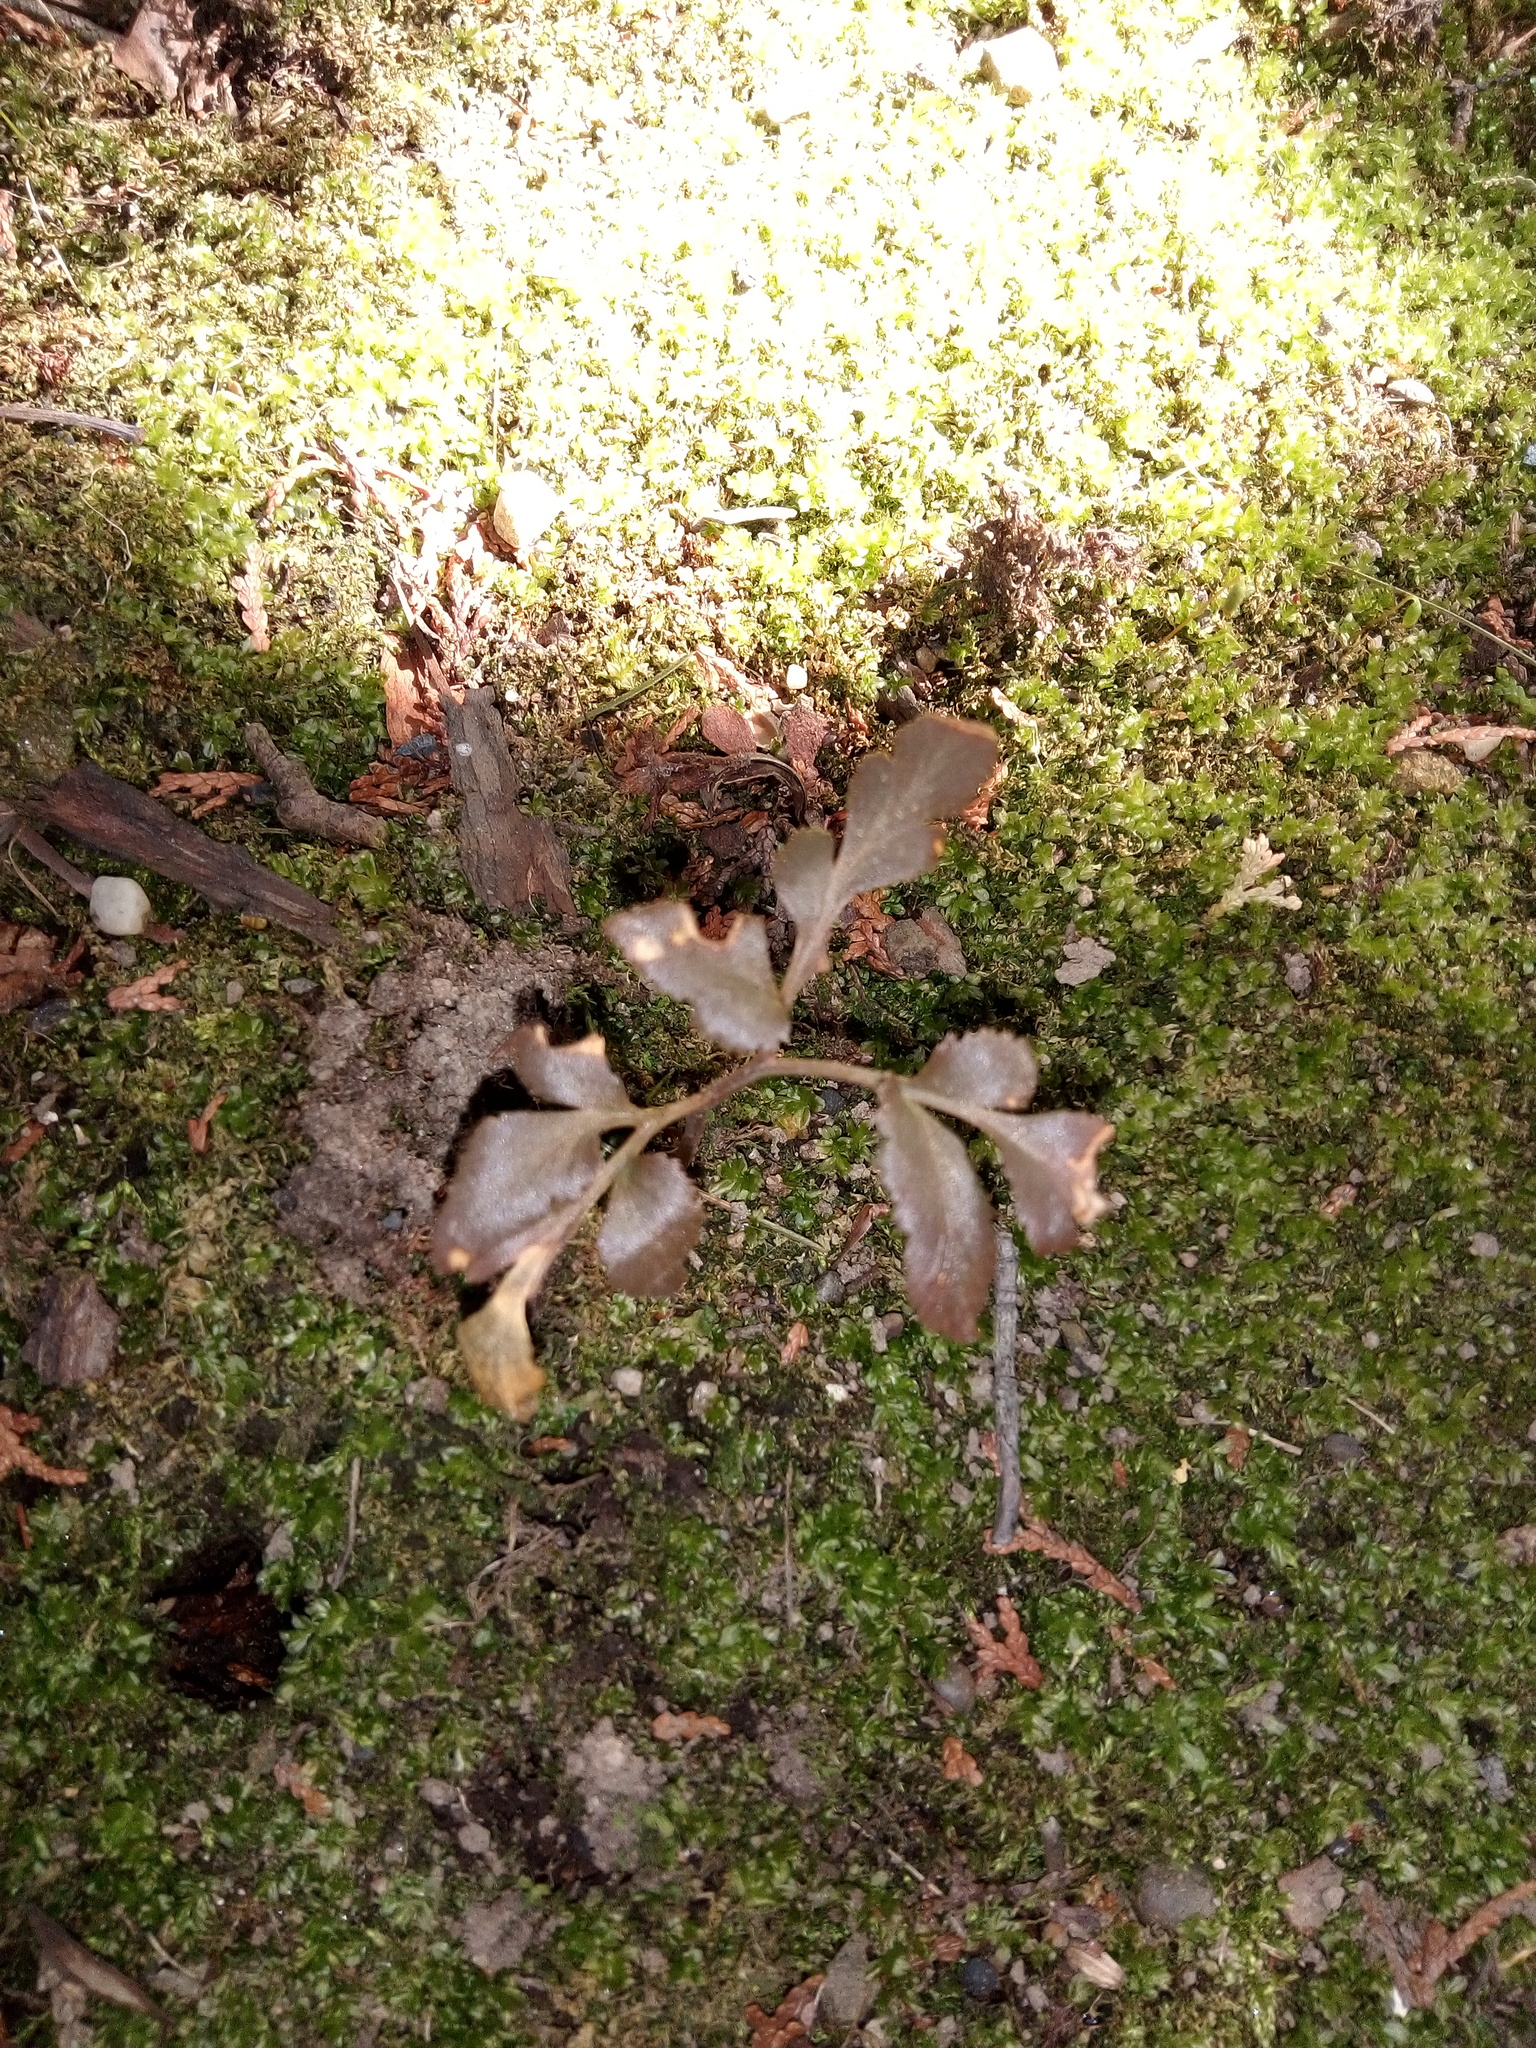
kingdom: Plantae
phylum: Tracheophyta
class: Polypodiopsida
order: Ophioglossales
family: Ophioglossaceae
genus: Sceptridium
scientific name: Sceptridium dissectum
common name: Cut-leaved grapefern
